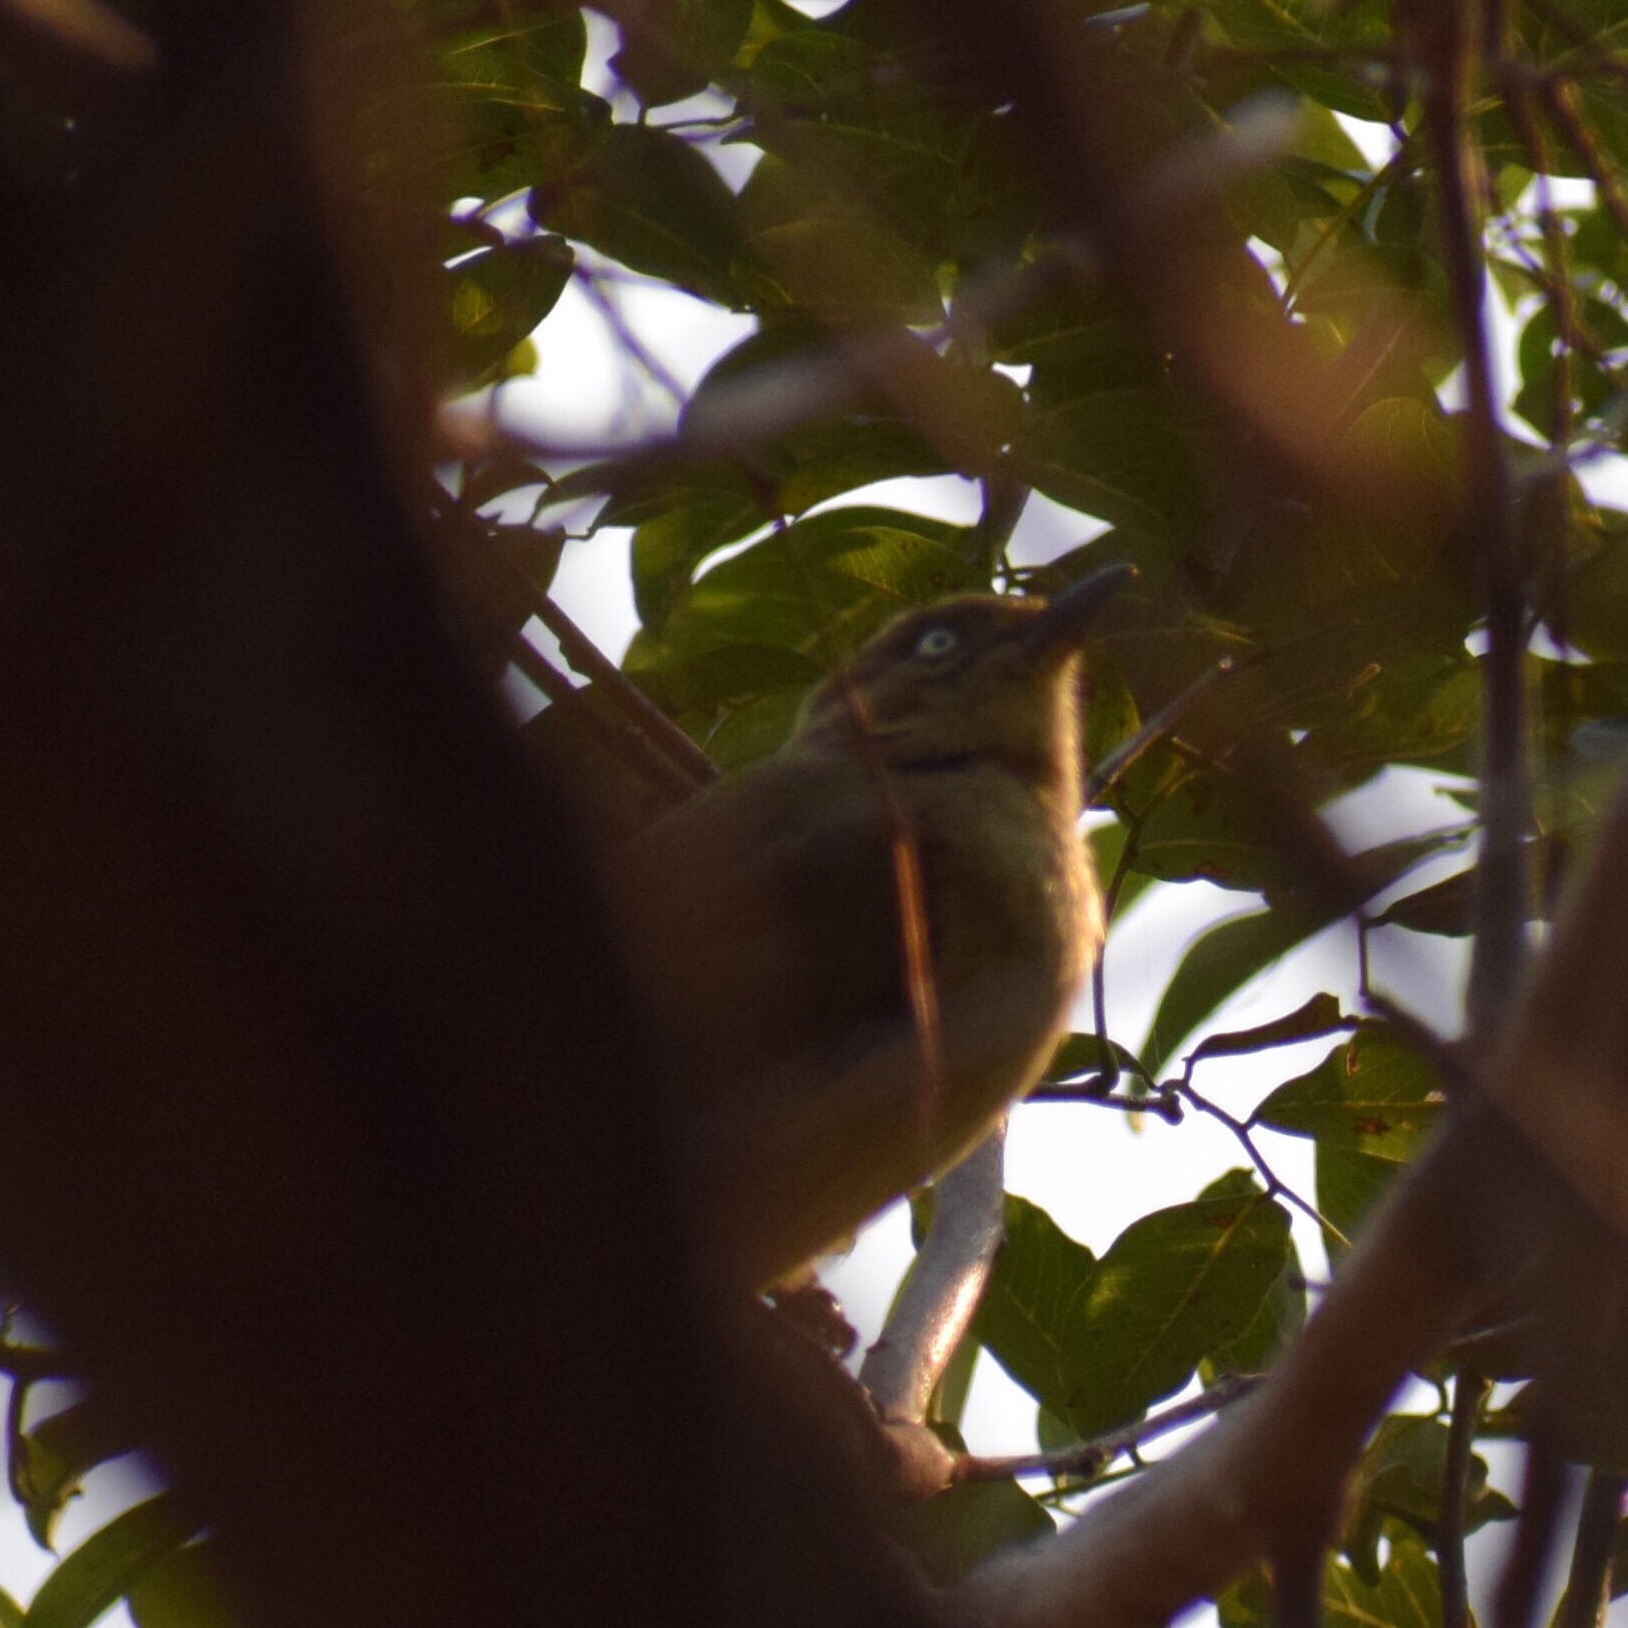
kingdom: Animalia
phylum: Chordata
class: Aves
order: Passeriformes
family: Pycnonotidae
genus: Andropadus
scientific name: Andropadus importunus
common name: Sombre greenbul
